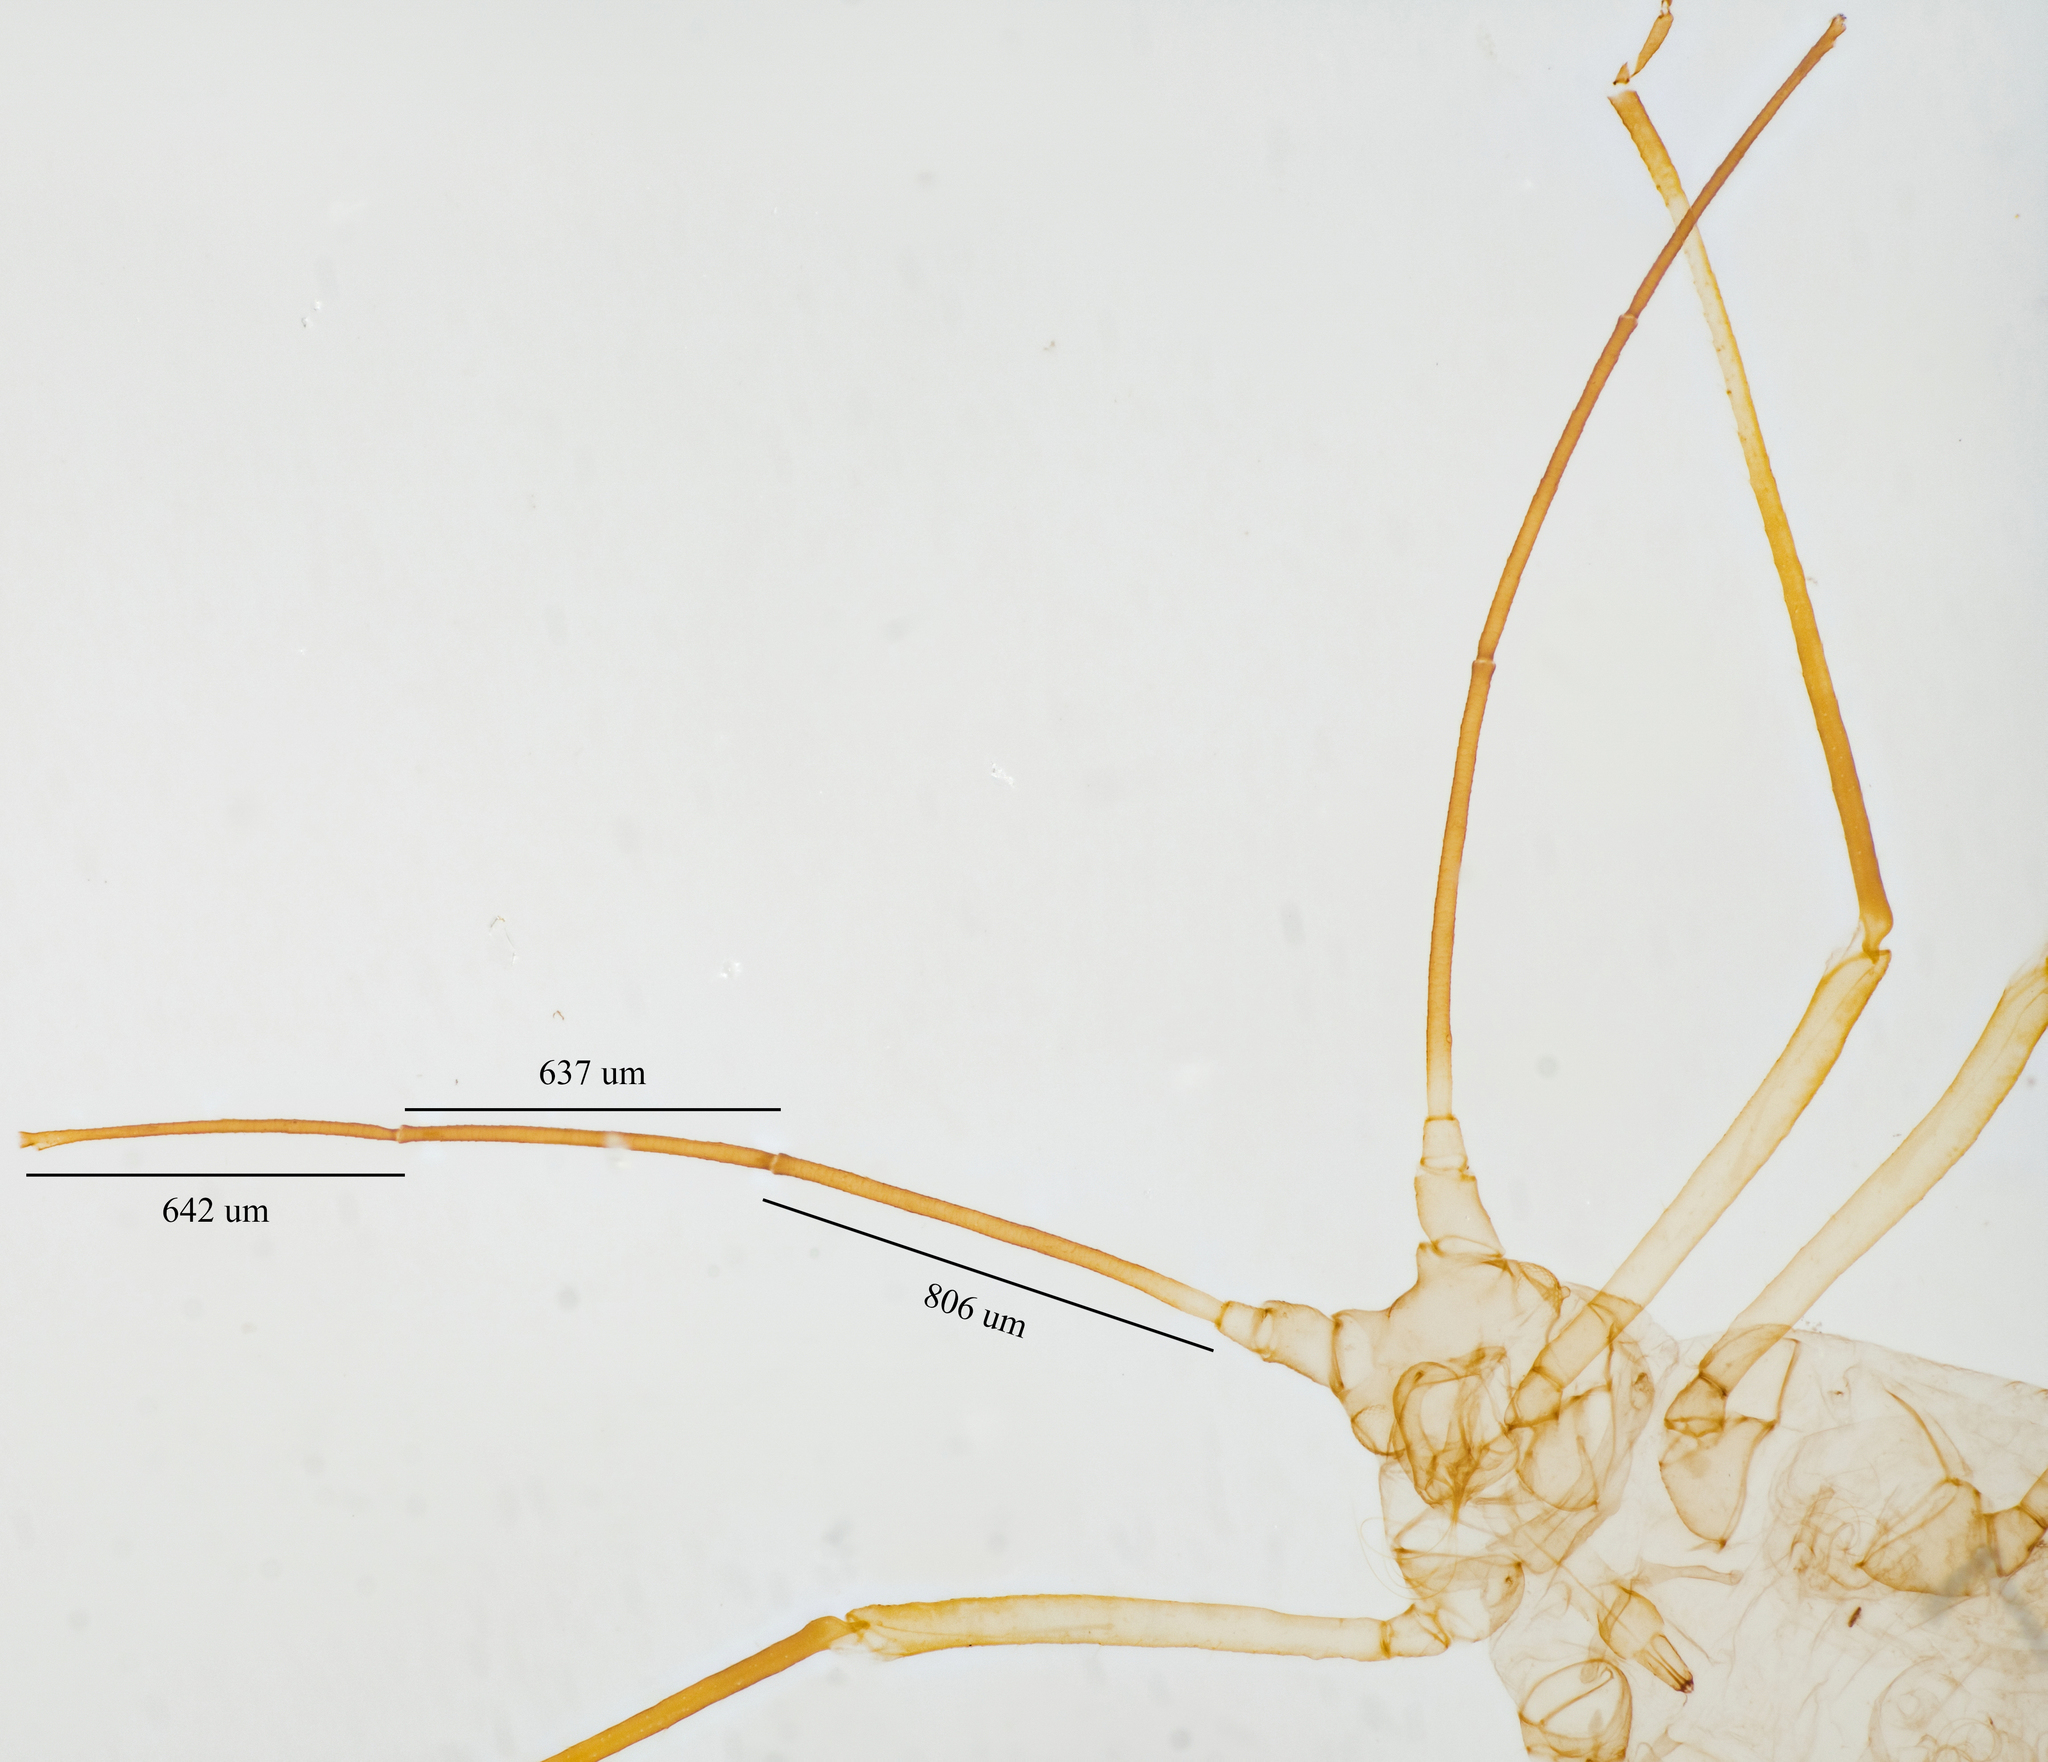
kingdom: Animalia
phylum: Arthropoda
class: Insecta
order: Hemiptera
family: Aphididae
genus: Illinoia
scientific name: Illinoia liriodendri
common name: Tuliptree aphid
